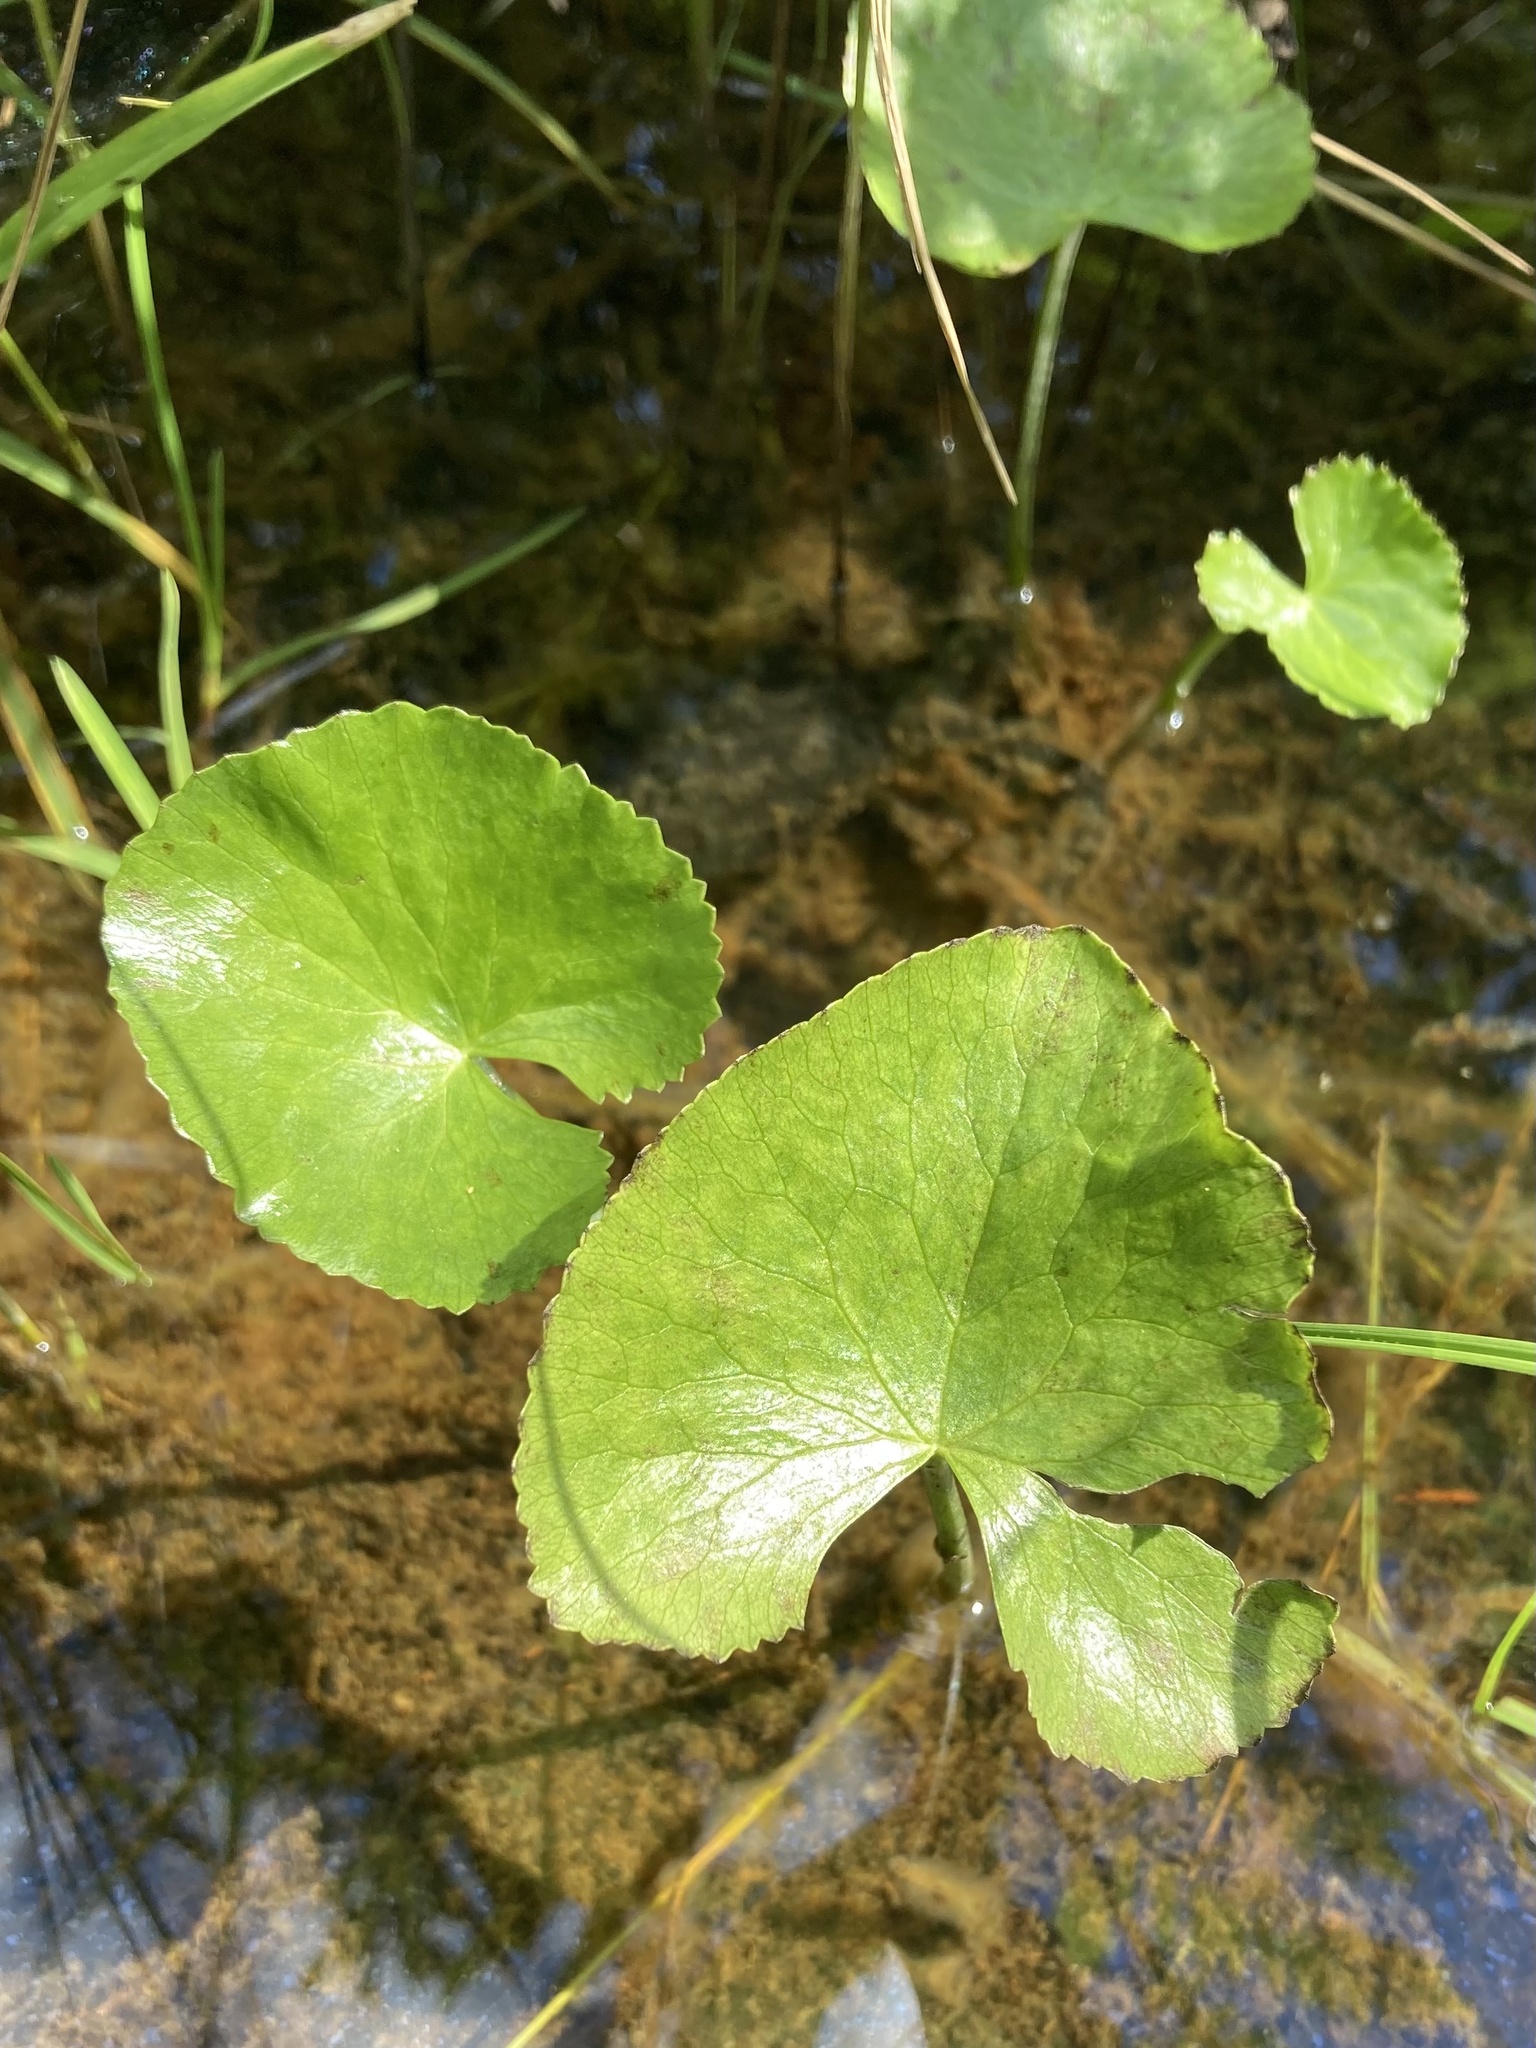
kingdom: Plantae
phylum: Tracheophyta
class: Magnoliopsida
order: Ranunculales
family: Ranunculaceae
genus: Caltha
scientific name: Caltha palustris
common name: Marsh marigold
